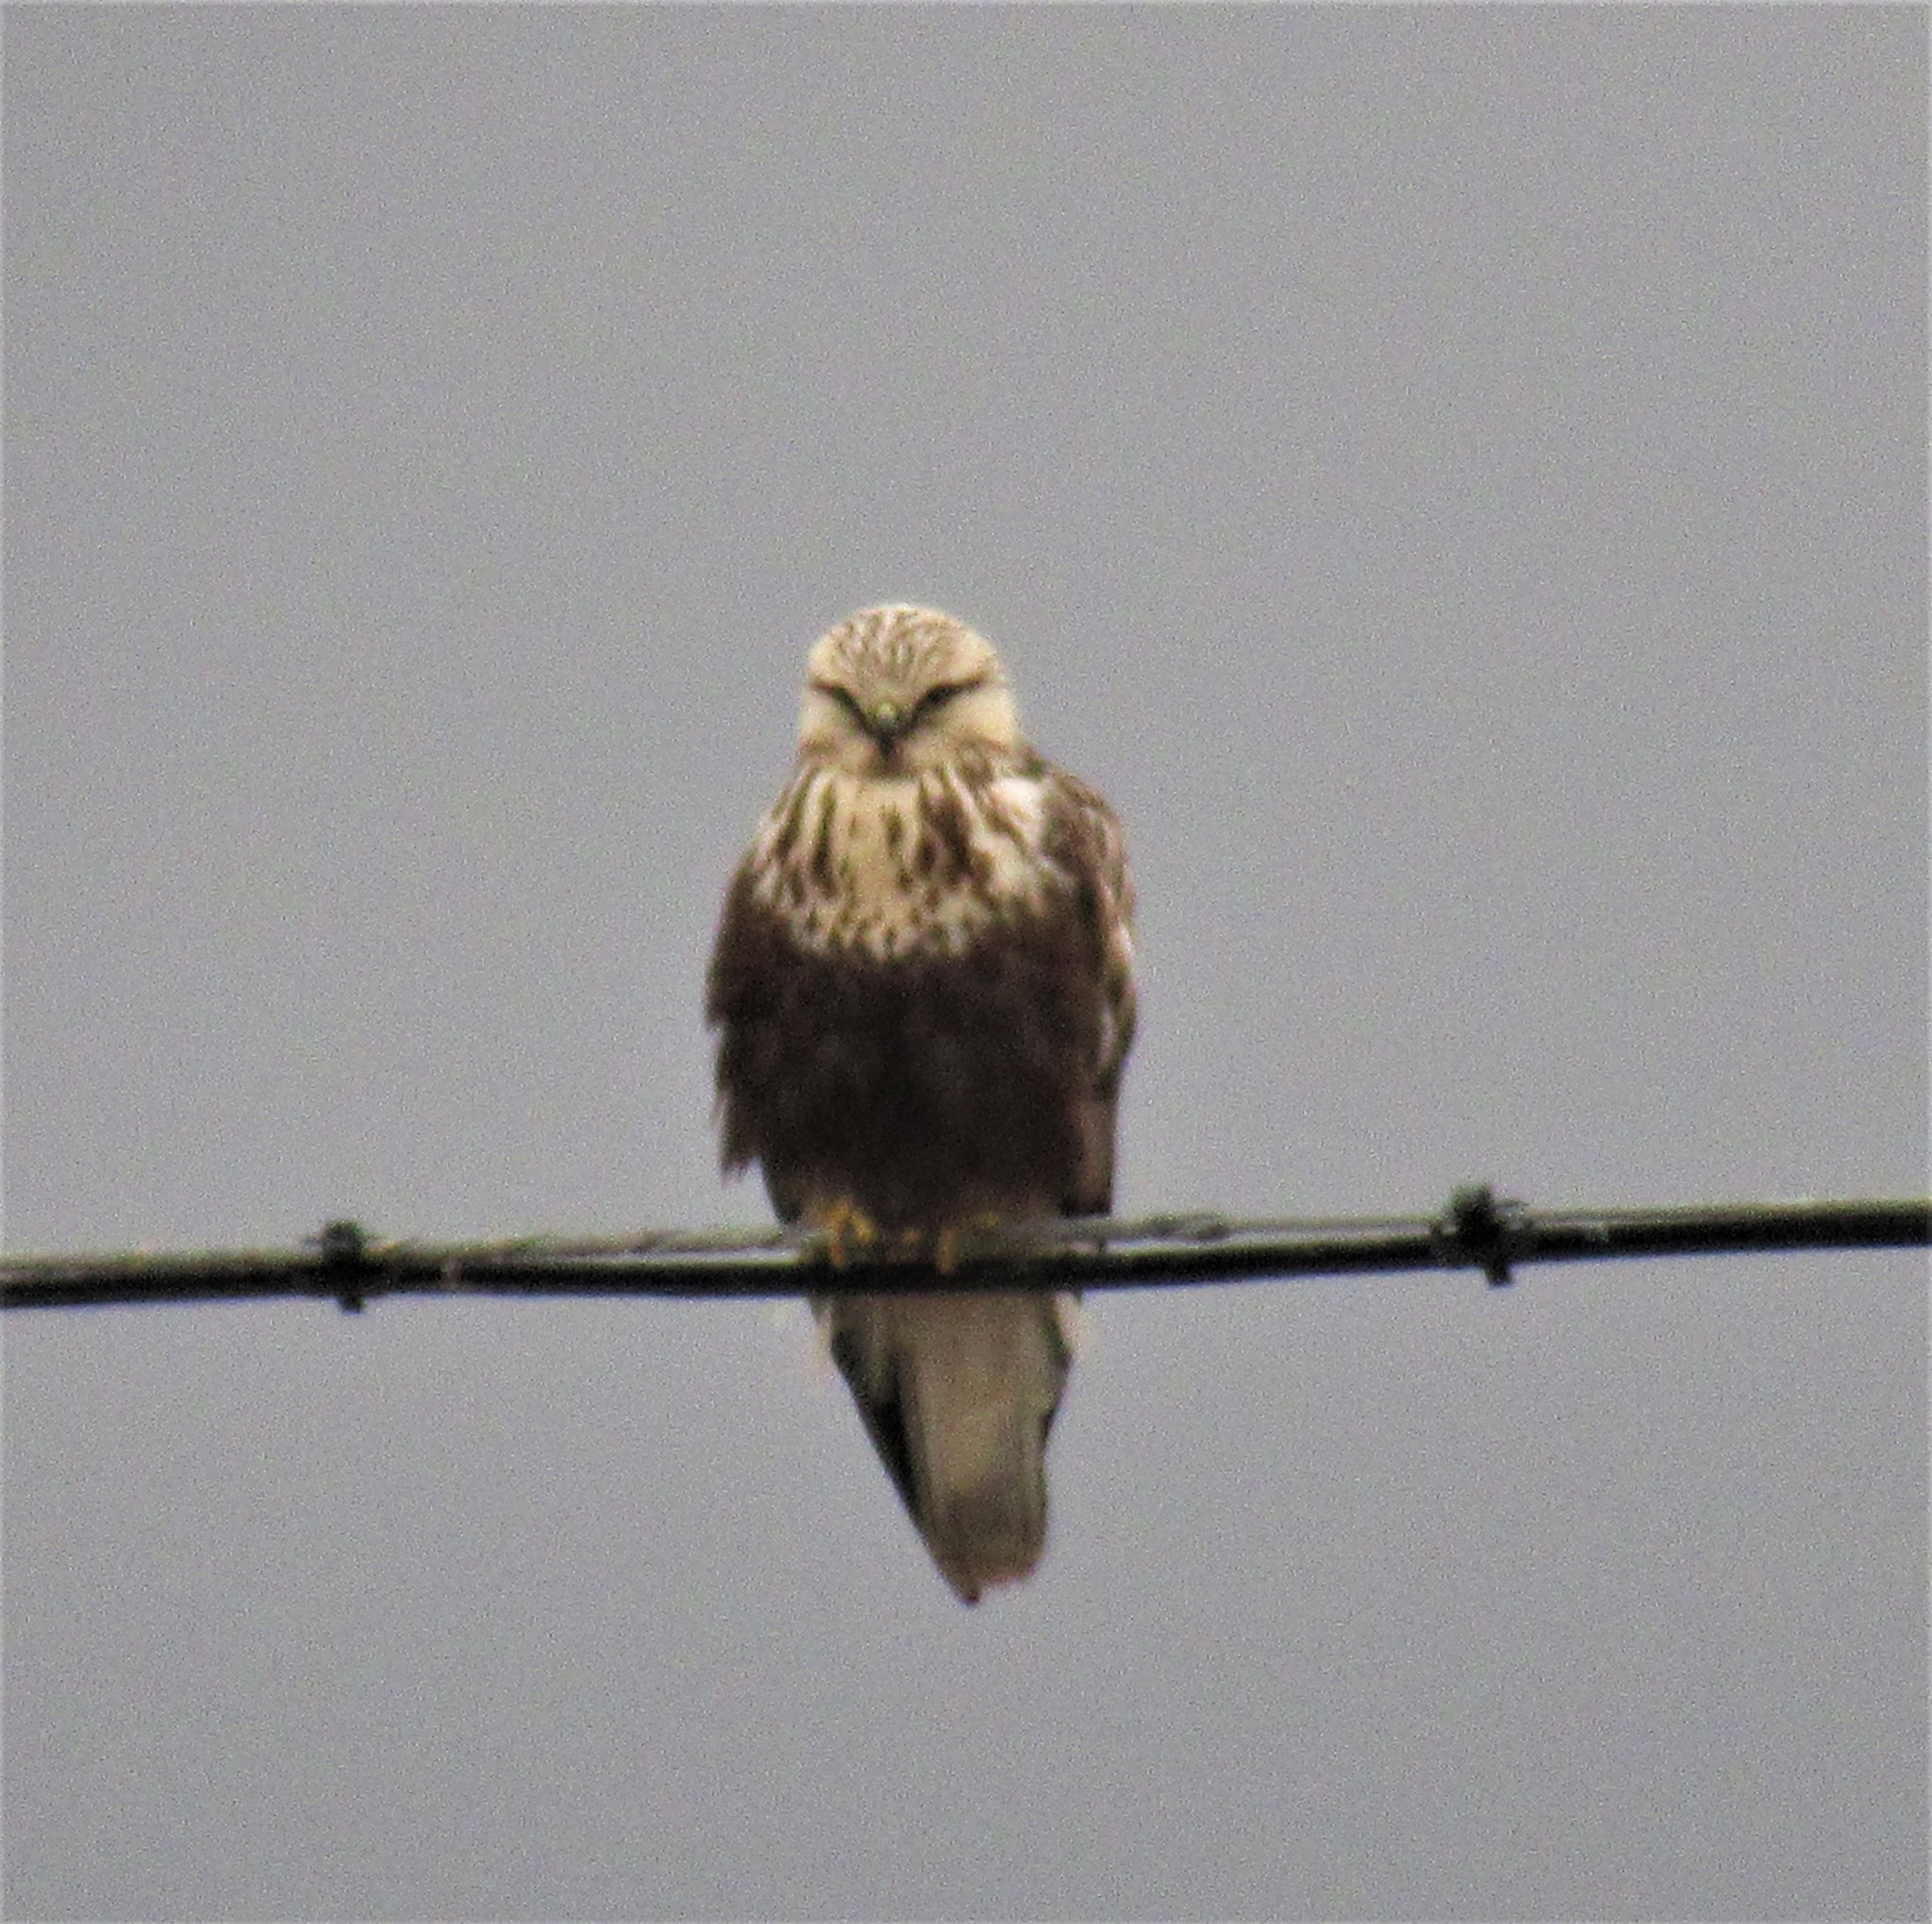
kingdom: Animalia
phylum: Chordata
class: Aves
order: Accipitriformes
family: Accipitridae
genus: Buteo
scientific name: Buteo lagopus
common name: Rough-legged buzzard
